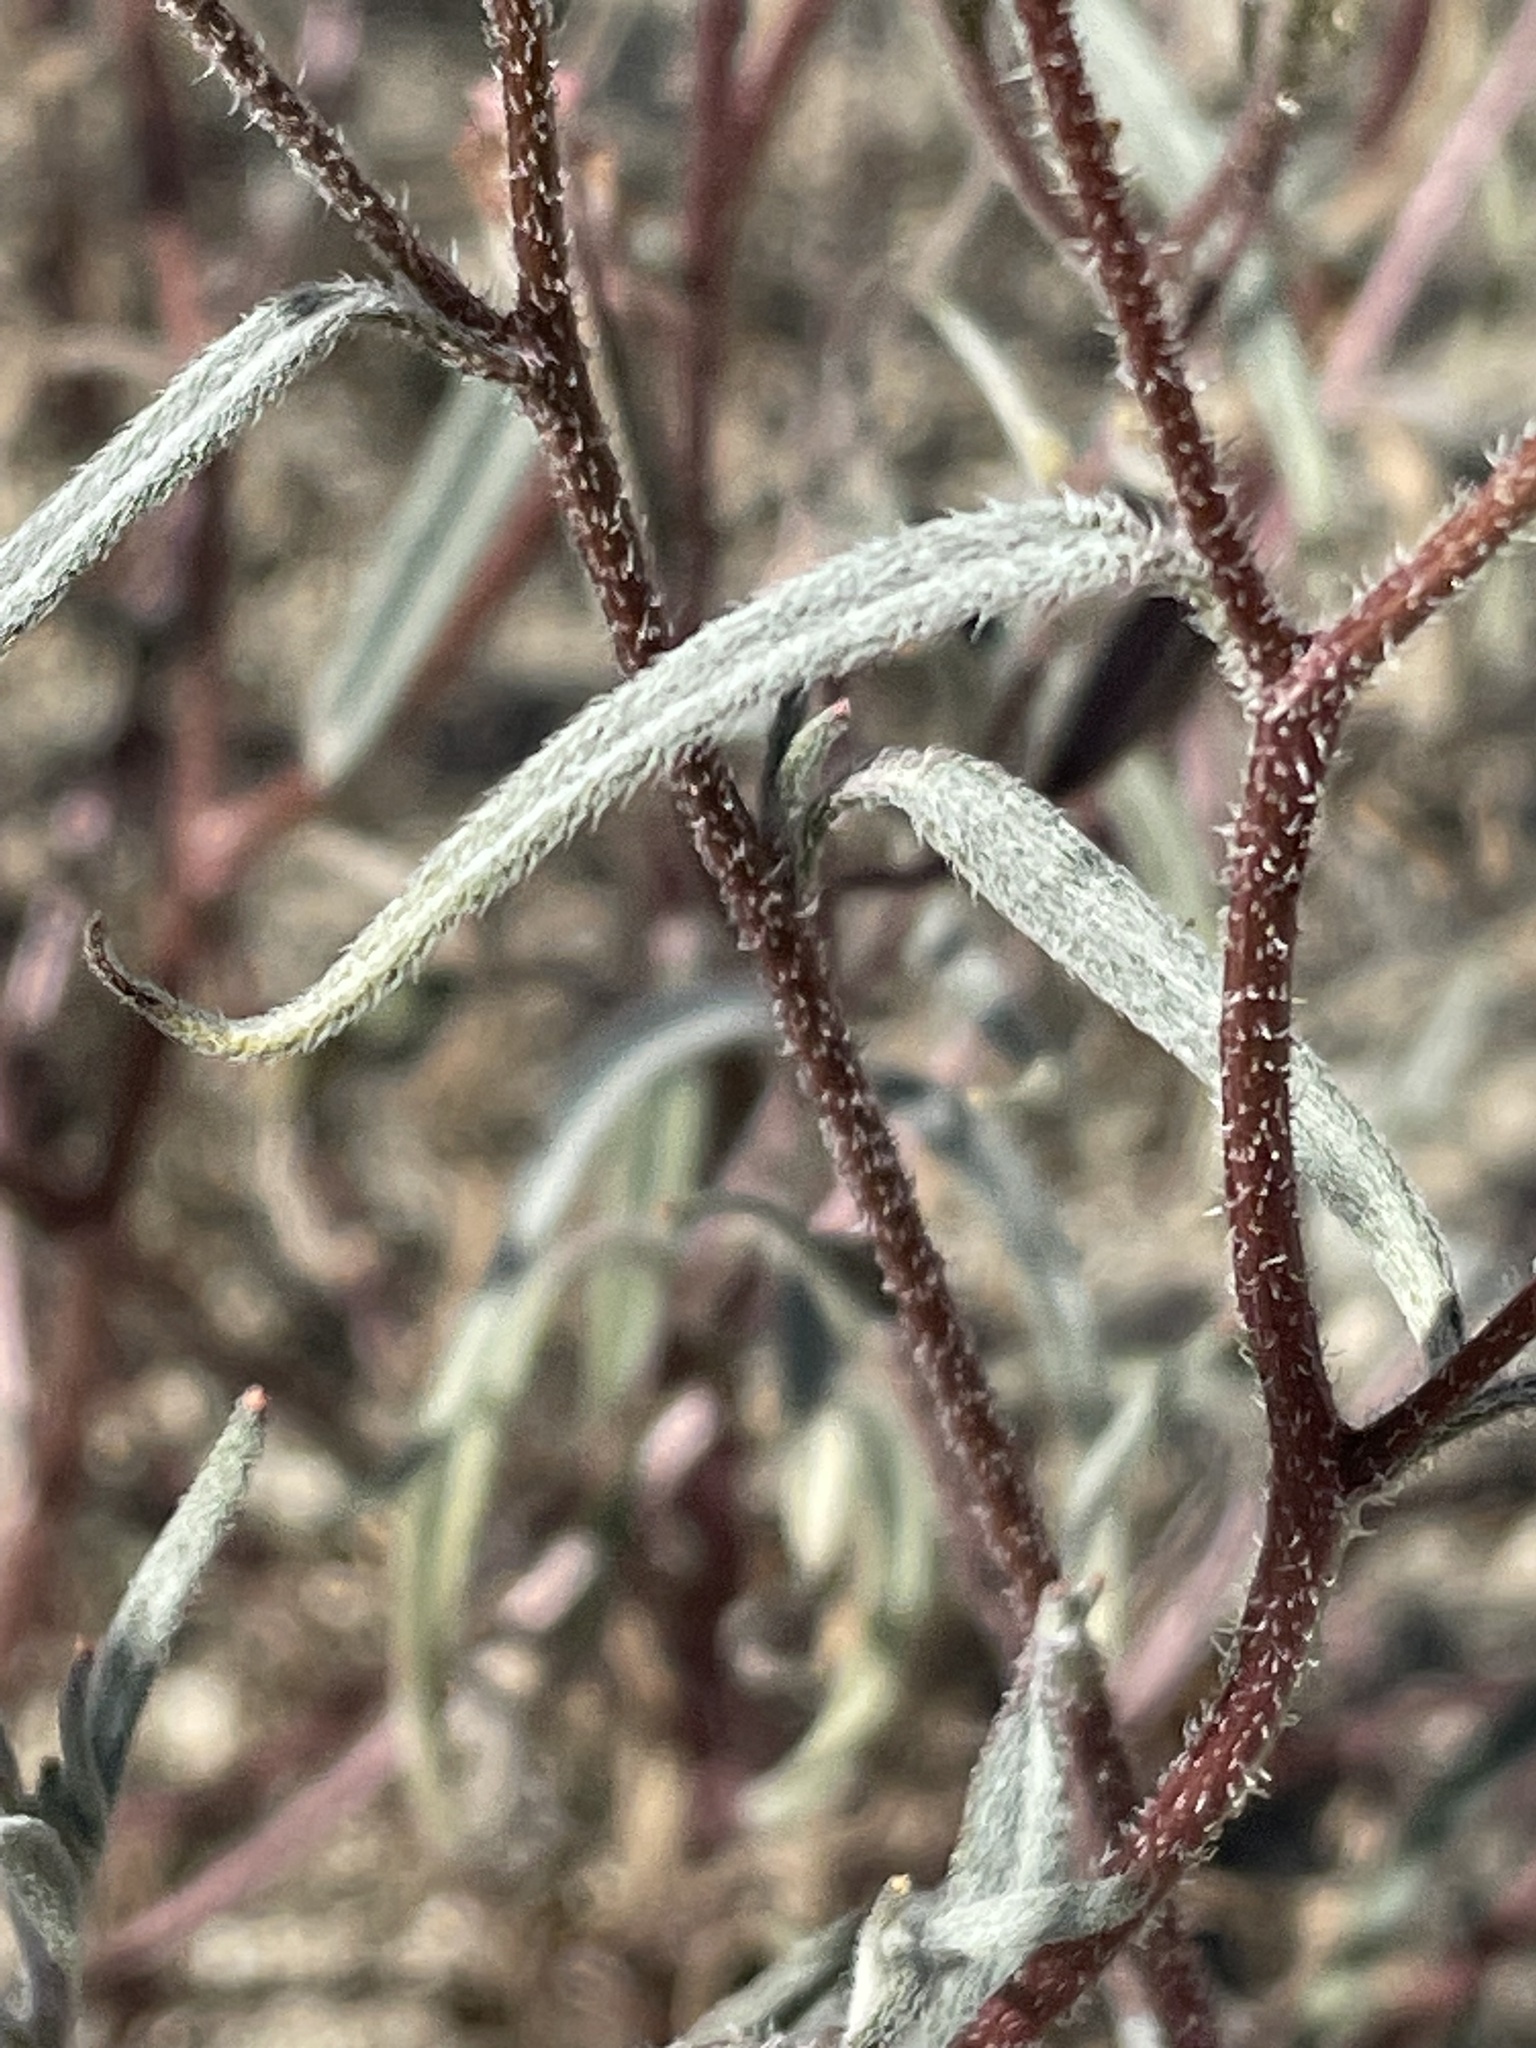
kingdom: Plantae
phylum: Tracheophyta
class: Magnoliopsida
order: Asterales
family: Asteraceae
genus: Palafoxia
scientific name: Palafoxia arida
